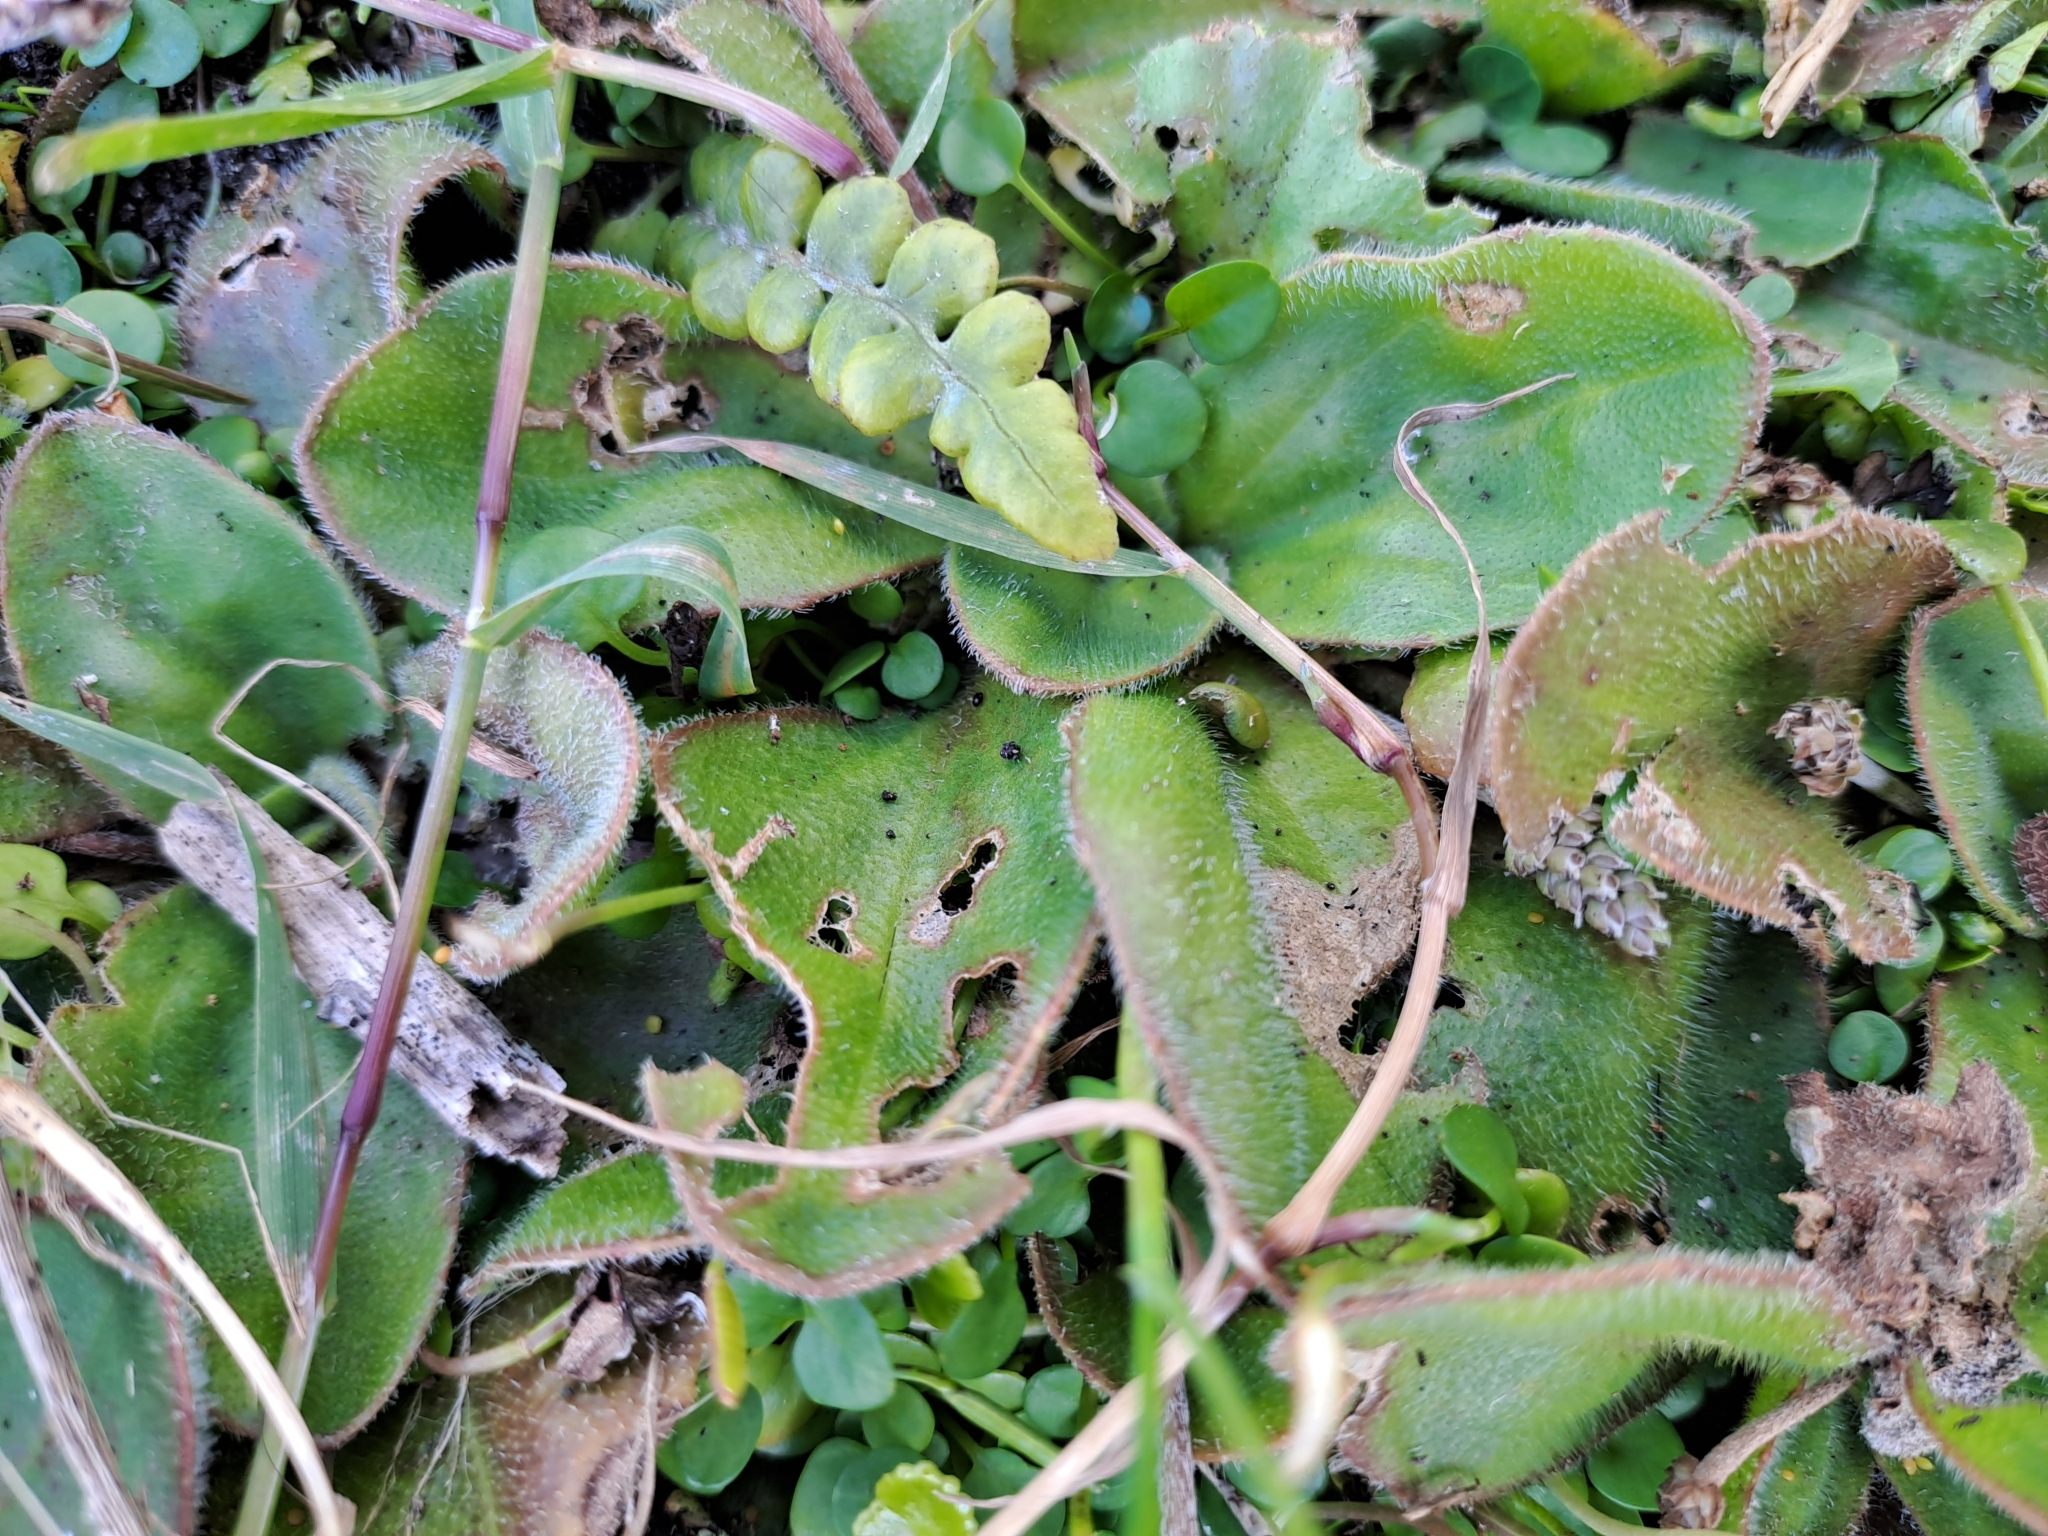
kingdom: Plantae
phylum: Tracheophyta
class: Magnoliopsida
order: Lamiales
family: Plantaginaceae
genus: Plantago
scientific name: Plantago raoulii
